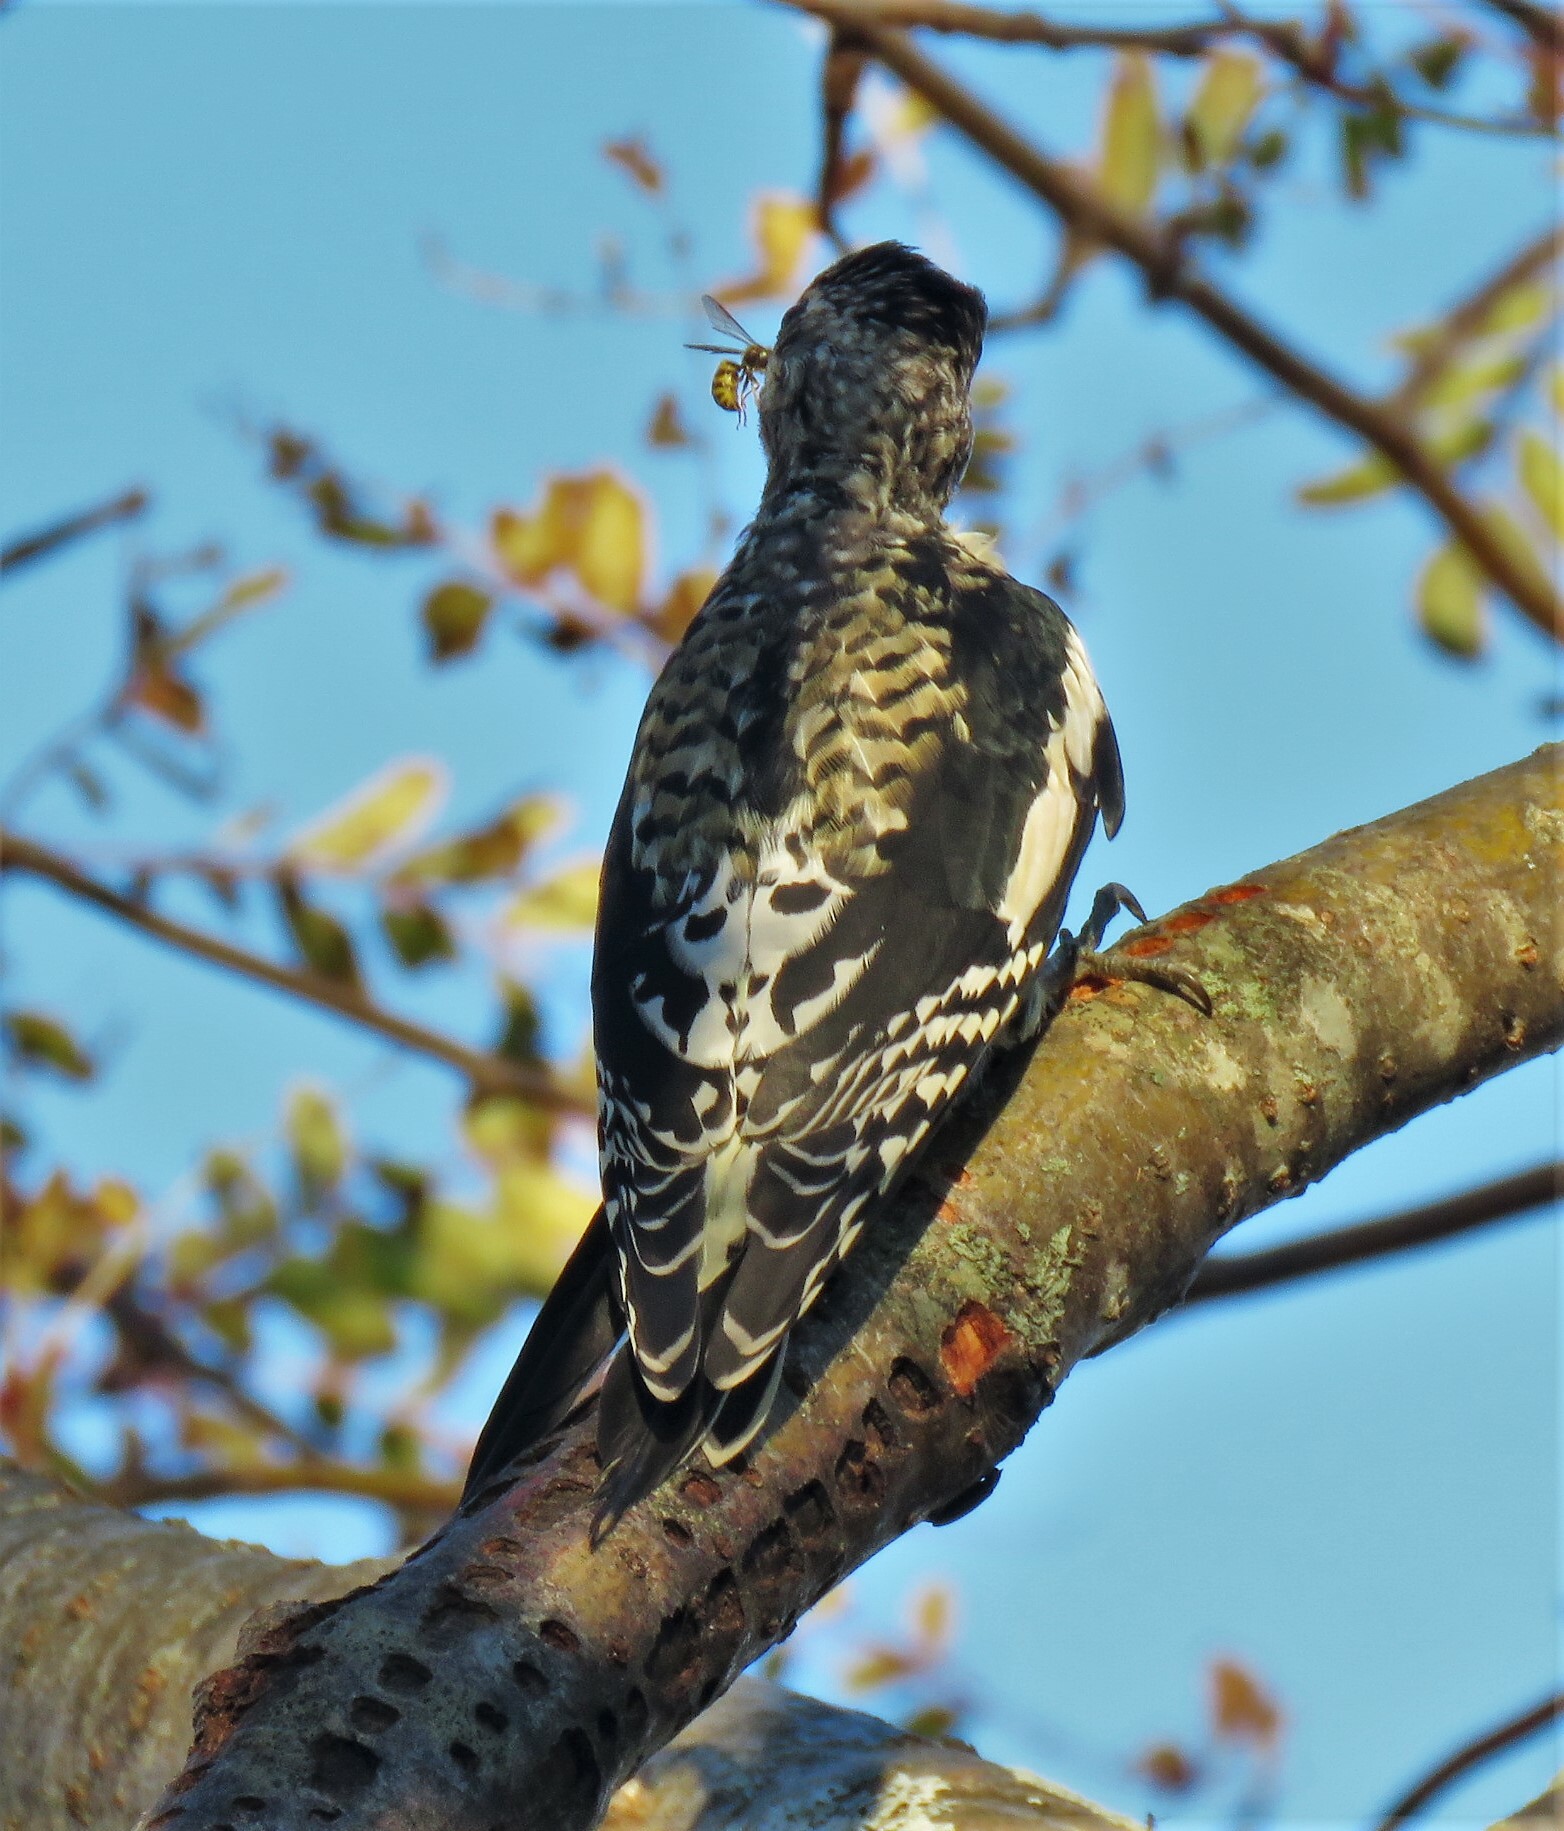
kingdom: Animalia
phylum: Chordata
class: Aves
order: Piciformes
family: Picidae
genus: Sphyrapicus
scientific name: Sphyrapicus varius
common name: Yellow-bellied sapsucker
